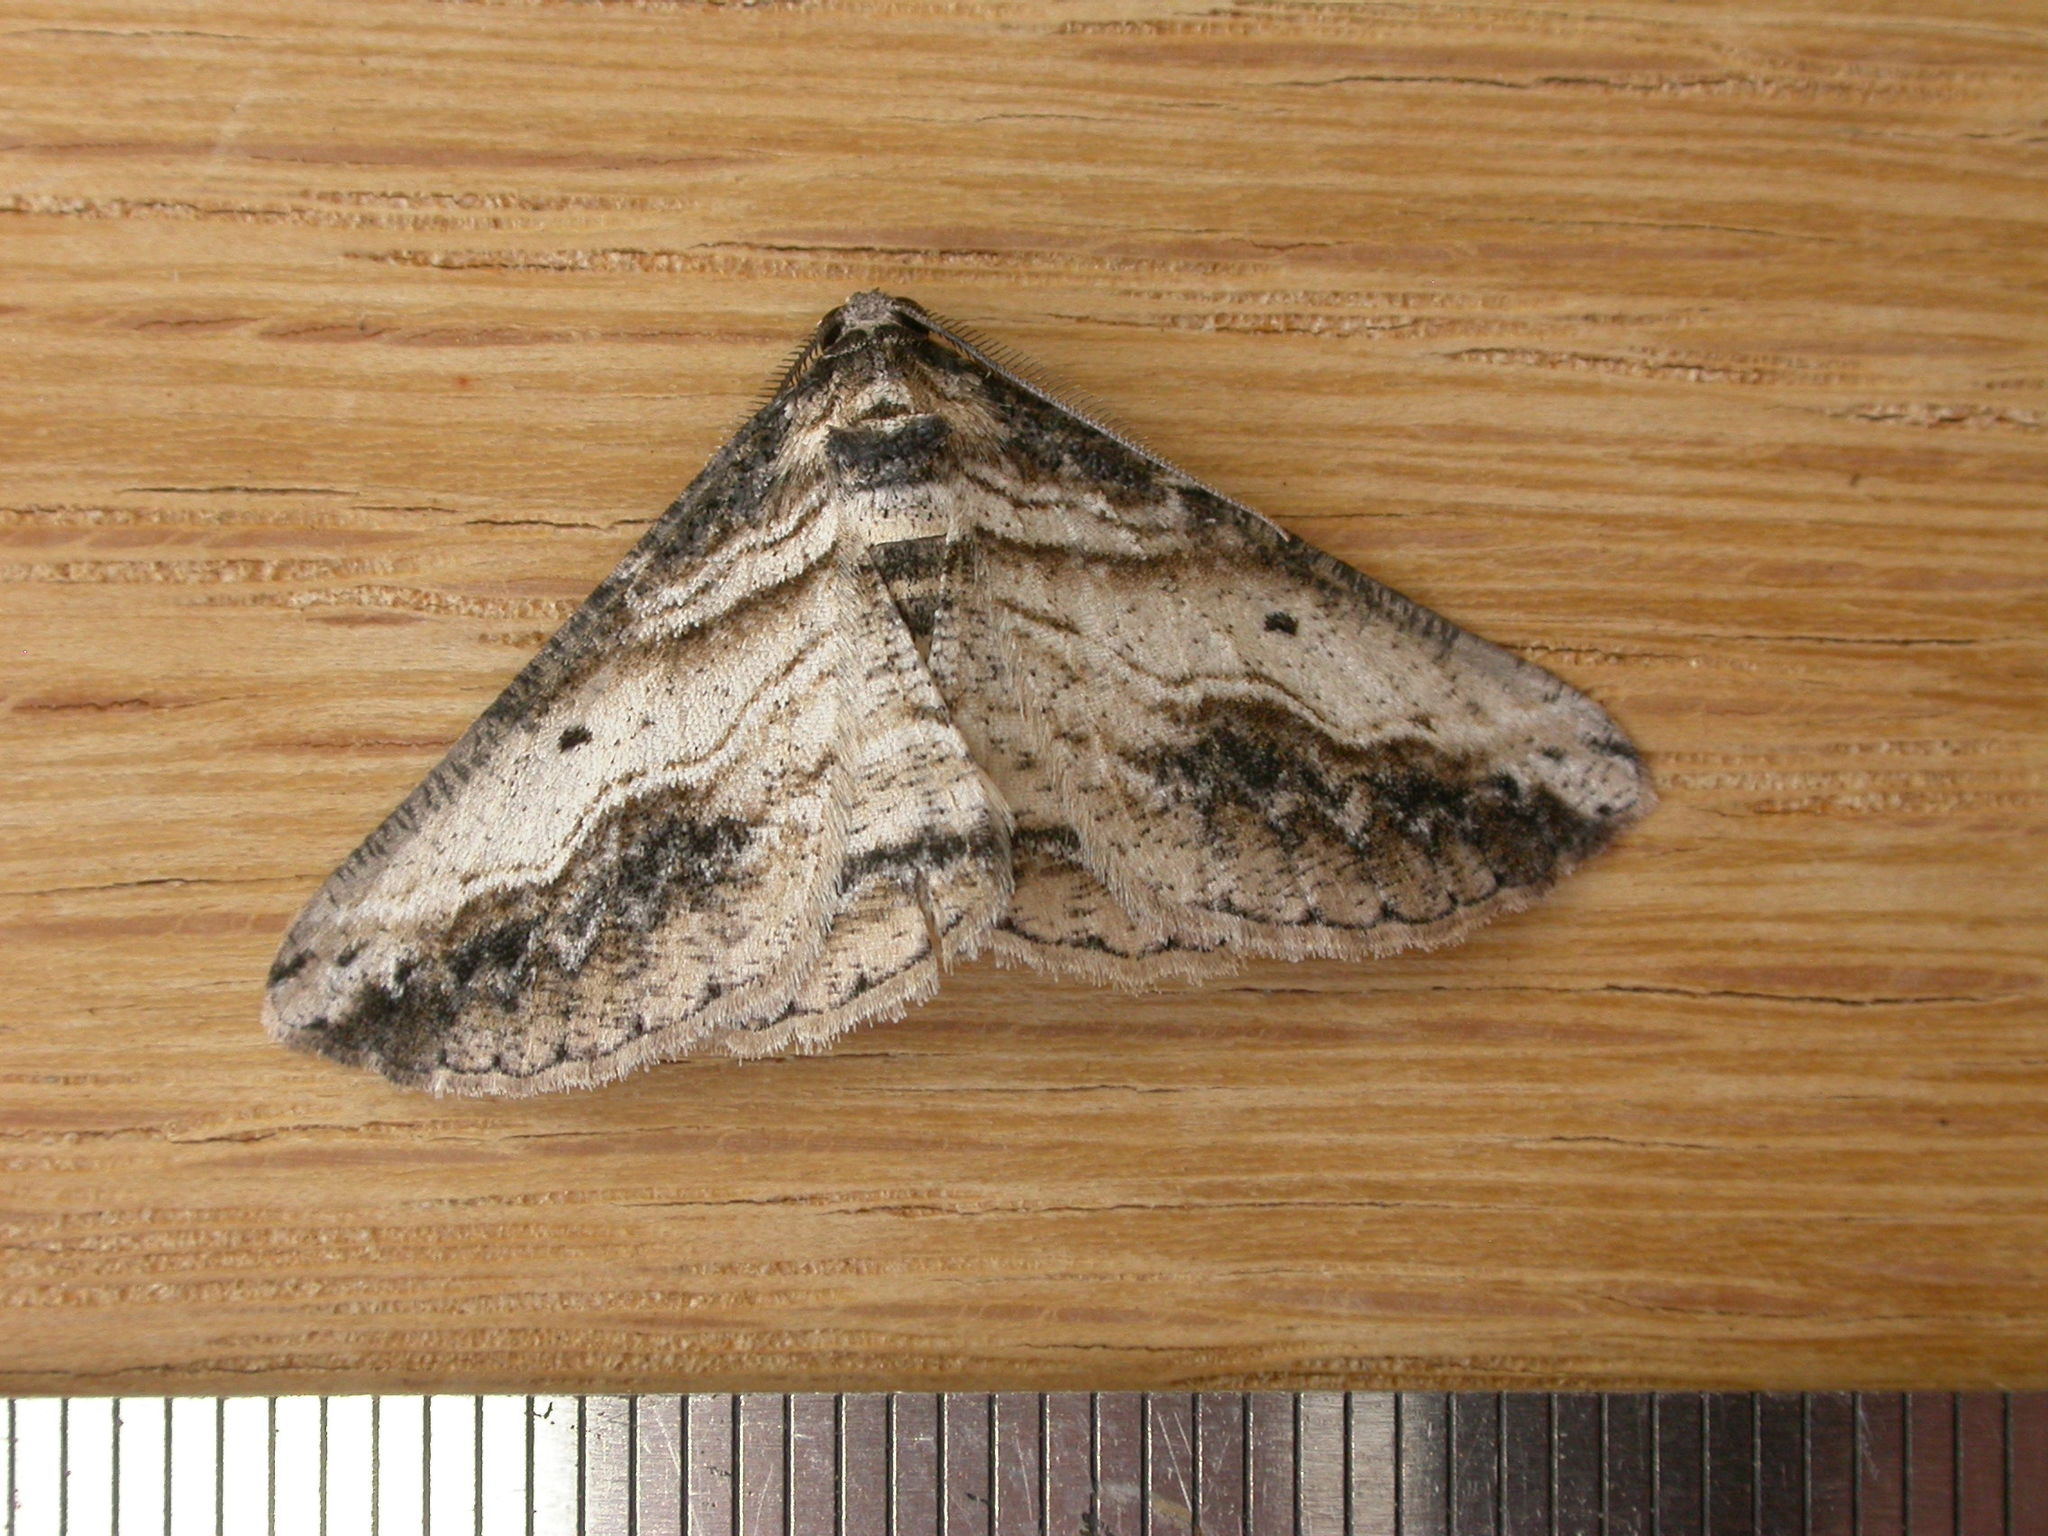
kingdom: Animalia
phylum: Arthropoda
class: Insecta
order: Lepidoptera
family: Geometridae
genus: Syneora
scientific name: Syneora euboliaria
